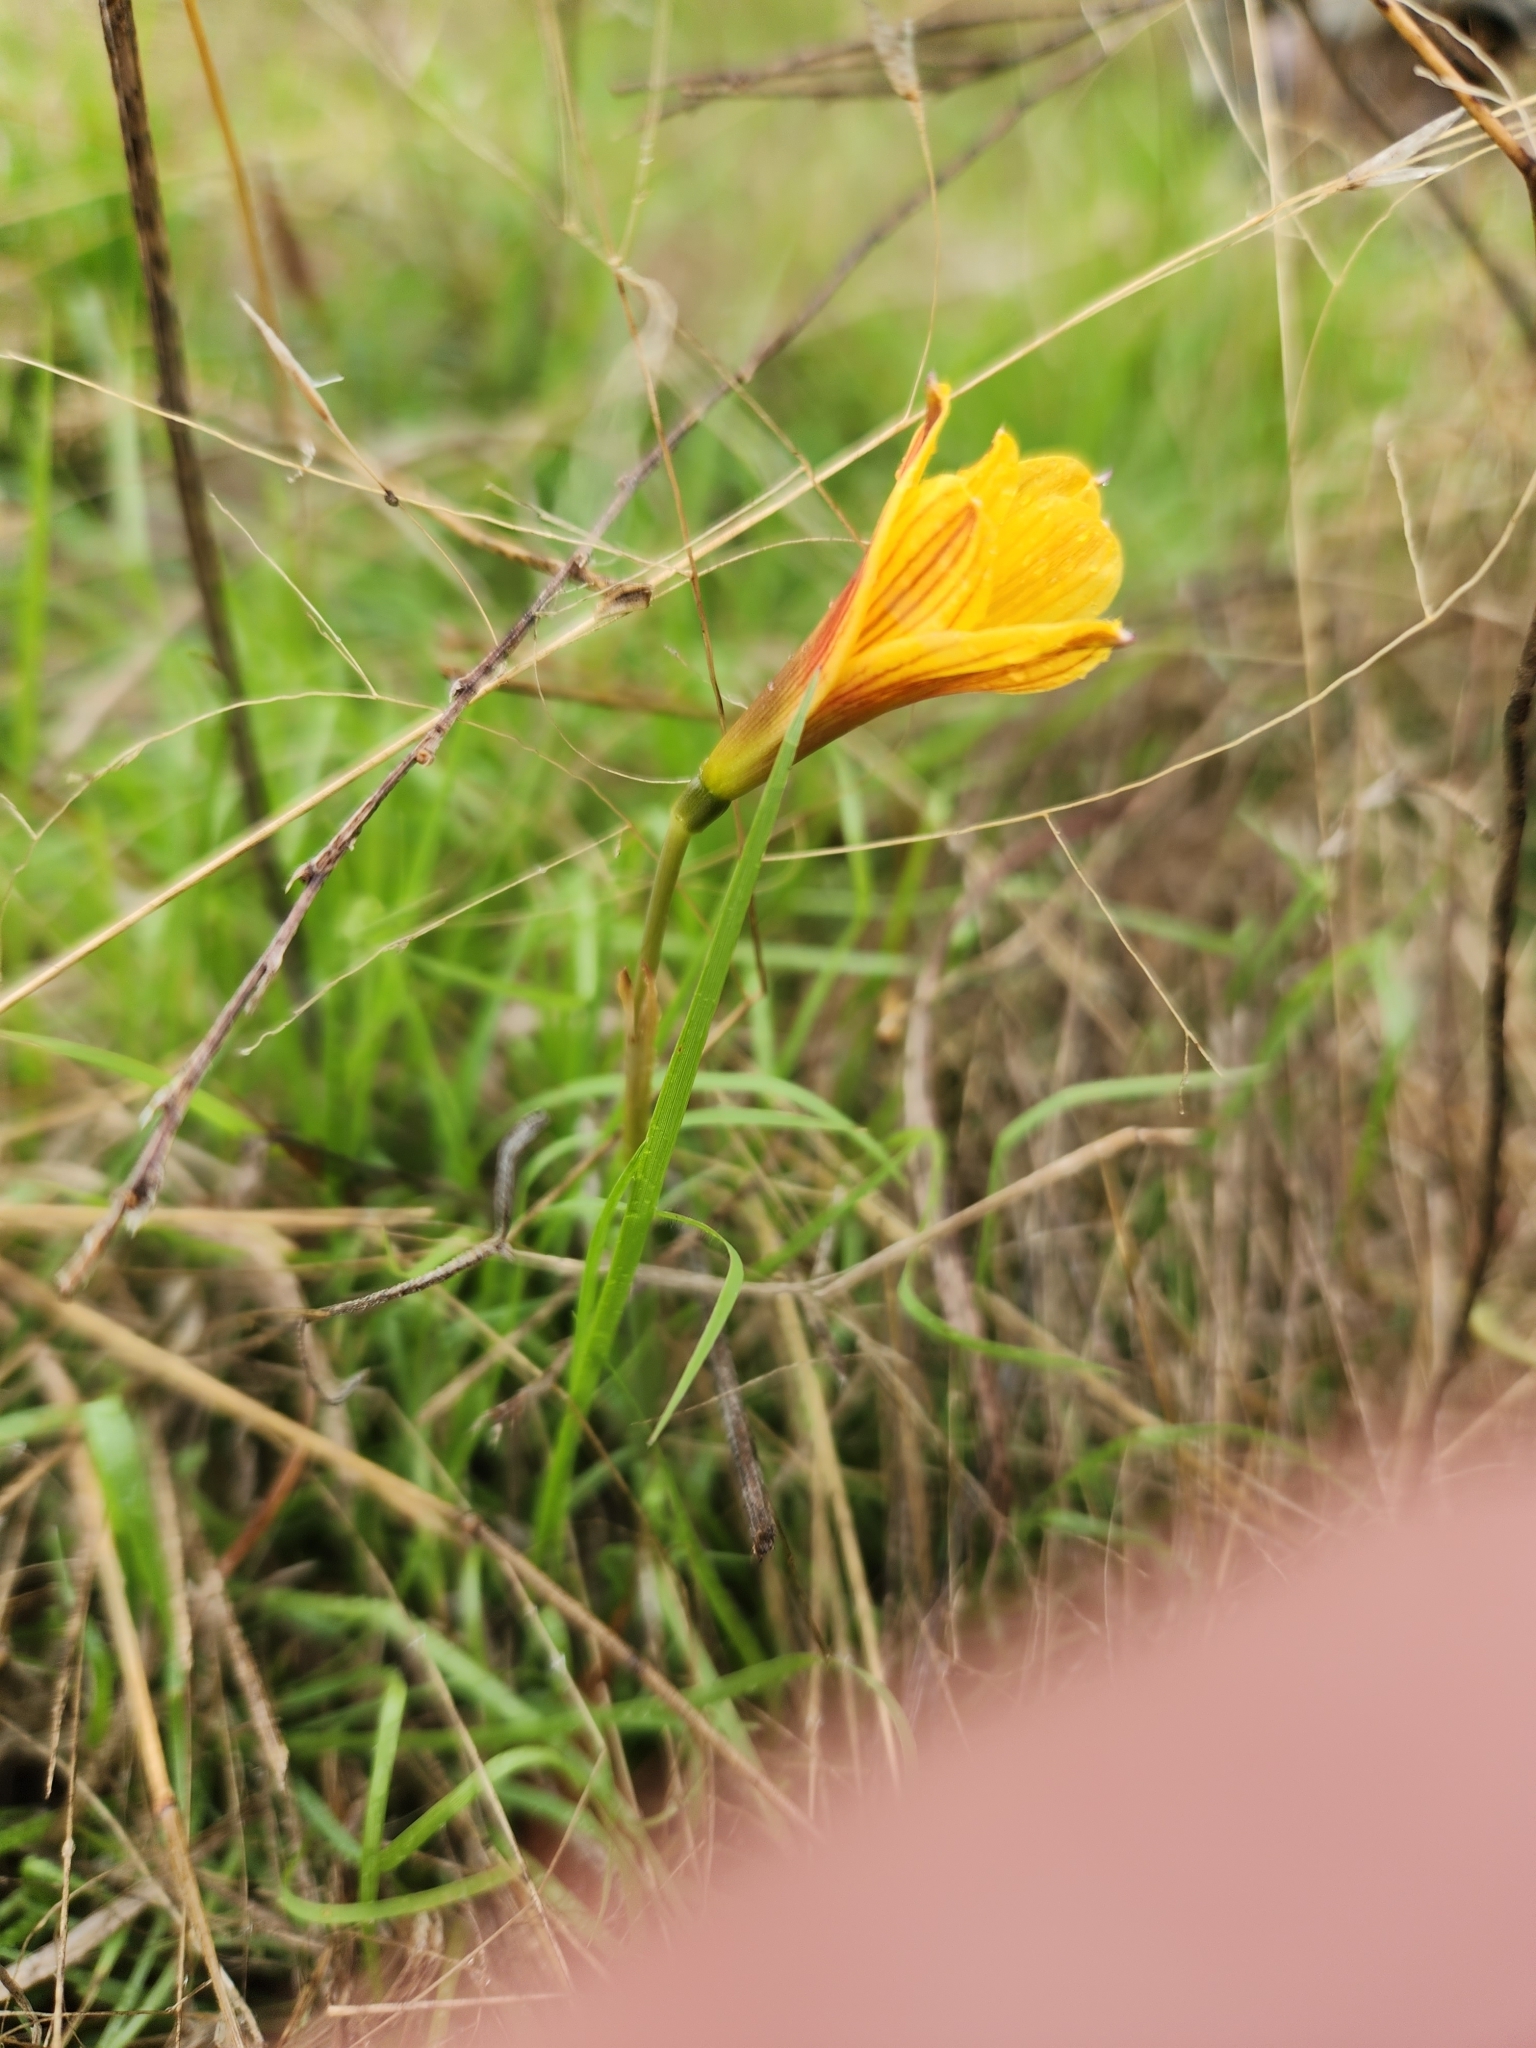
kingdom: Plantae
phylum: Tracheophyta
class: Liliopsida
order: Asparagales
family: Amaryllidaceae
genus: Zephyranthes
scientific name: Zephyranthes tubispatha
